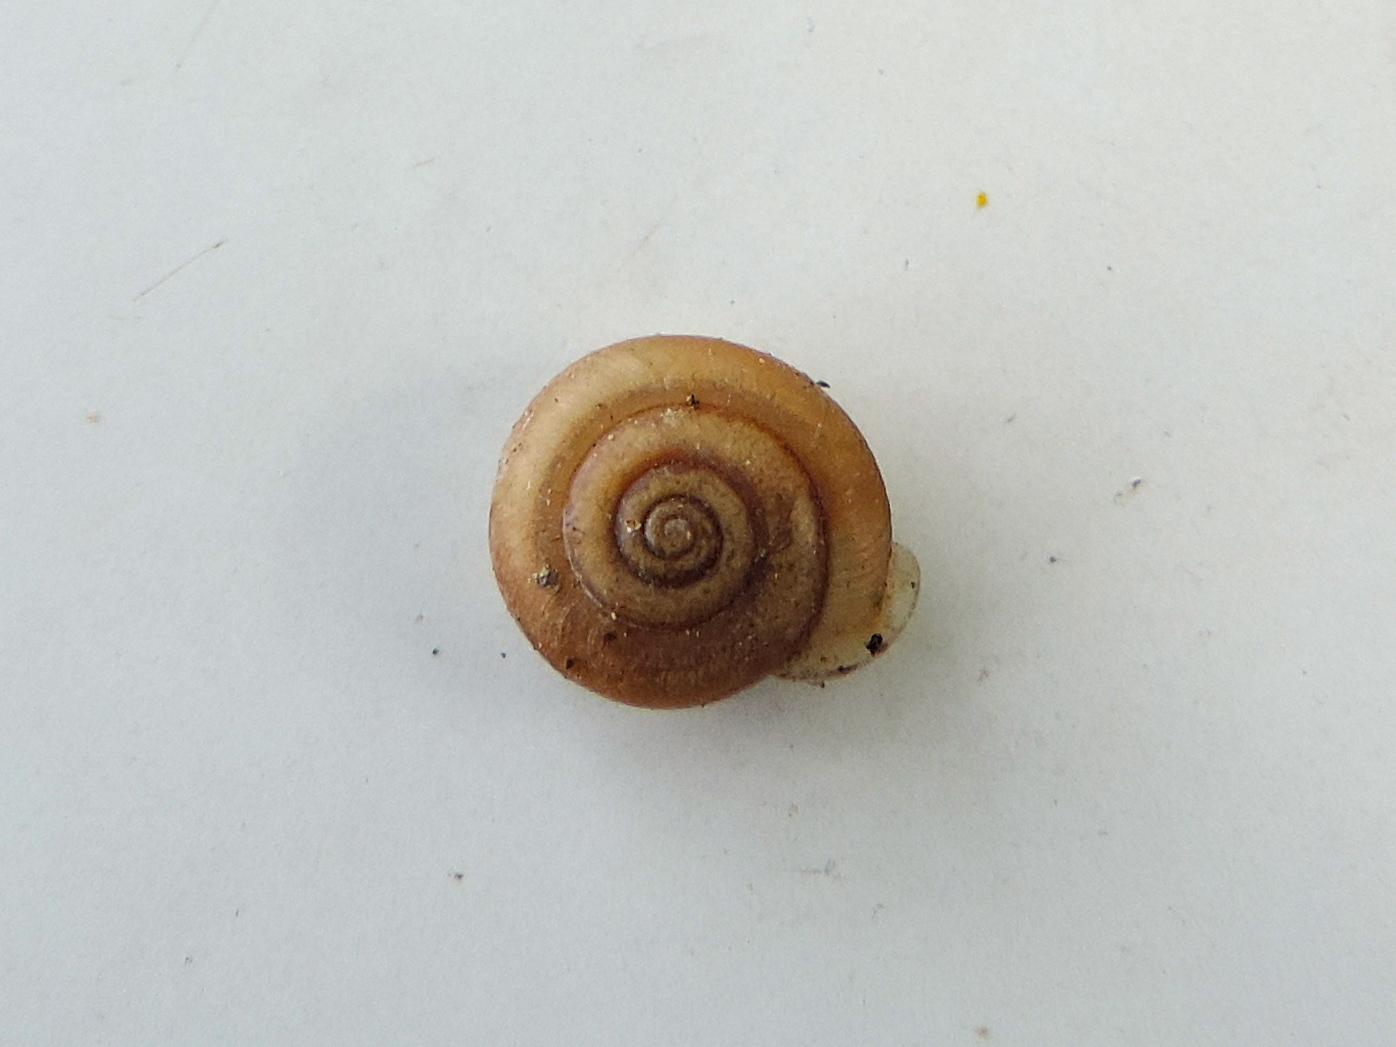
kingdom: Animalia
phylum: Mollusca
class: Gastropoda
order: Stylommatophora
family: Polygyridae
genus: Linisa
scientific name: Linisa
